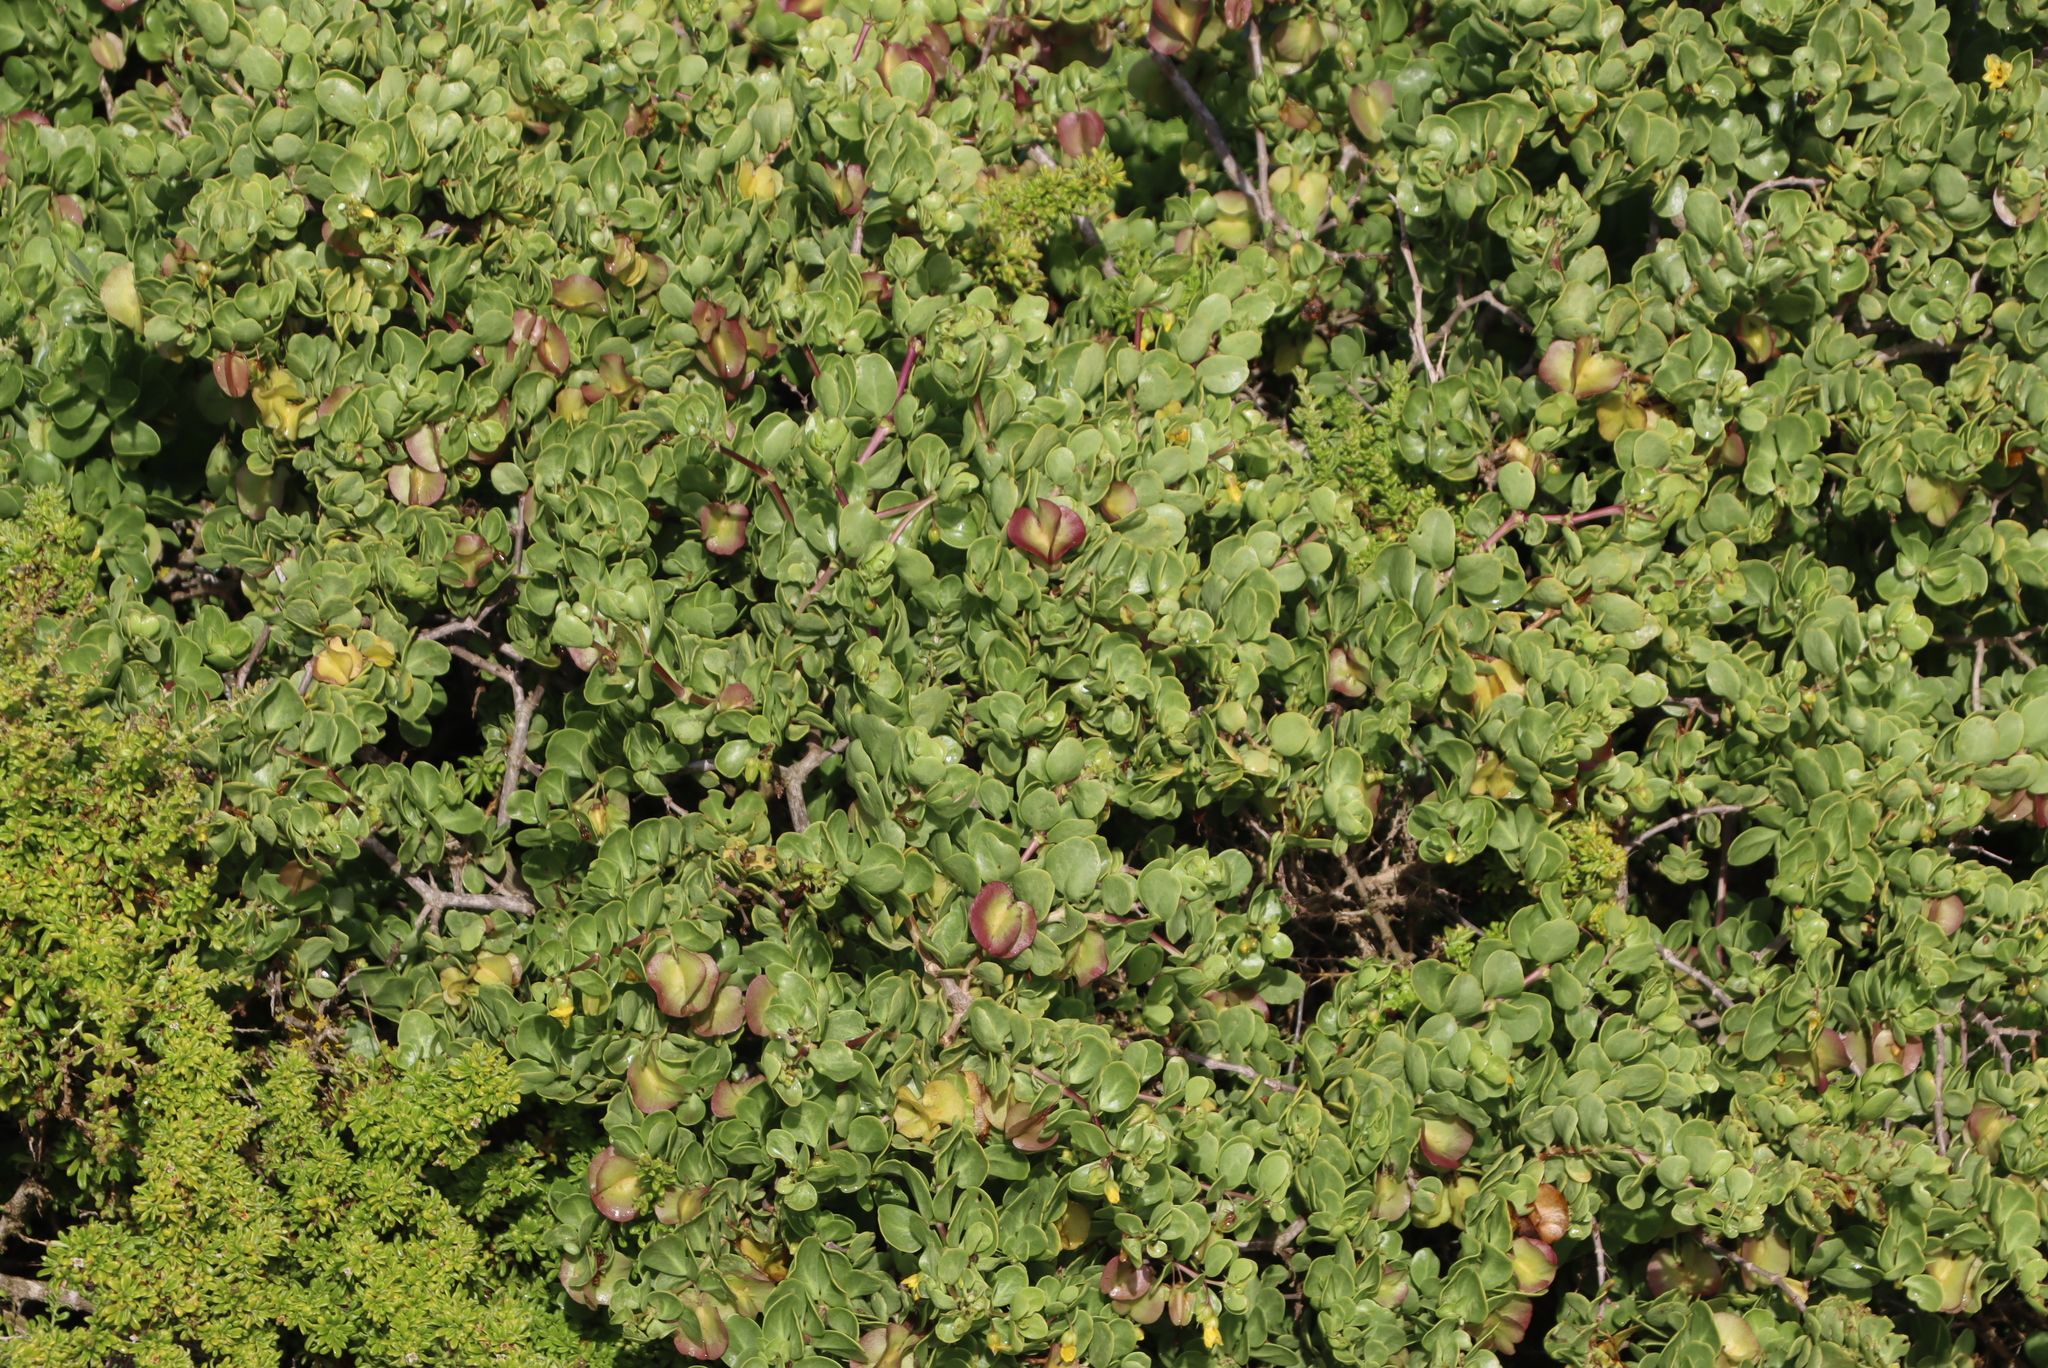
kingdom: Plantae
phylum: Tracheophyta
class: Magnoliopsida
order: Zygophyllales
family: Zygophyllaceae
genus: Roepera
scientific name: Roepera morgsana
